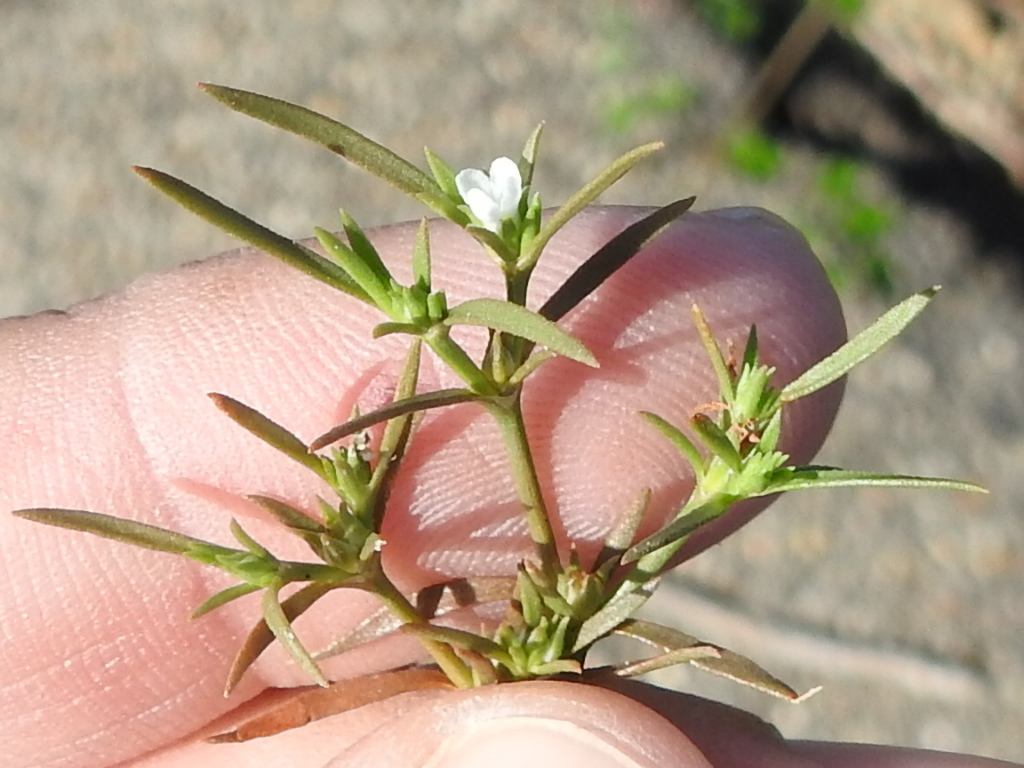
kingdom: Plantae
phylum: Tracheophyta
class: Magnoliopsida
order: Lamiales
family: Tetrachondraceae
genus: Polypremum
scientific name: Polypremum procumbens
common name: Juniper-leaf
